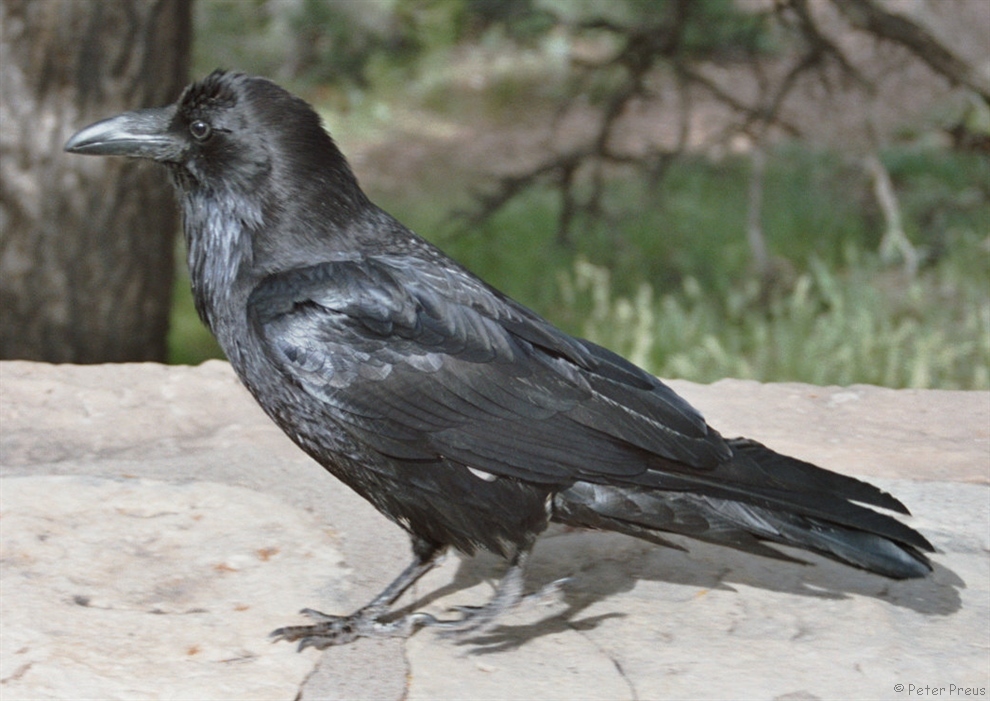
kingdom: Animalia
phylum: Chordata
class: Aves
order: Passeriformes
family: Corvidae
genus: Corvus
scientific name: Corvus corax
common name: Common raven
